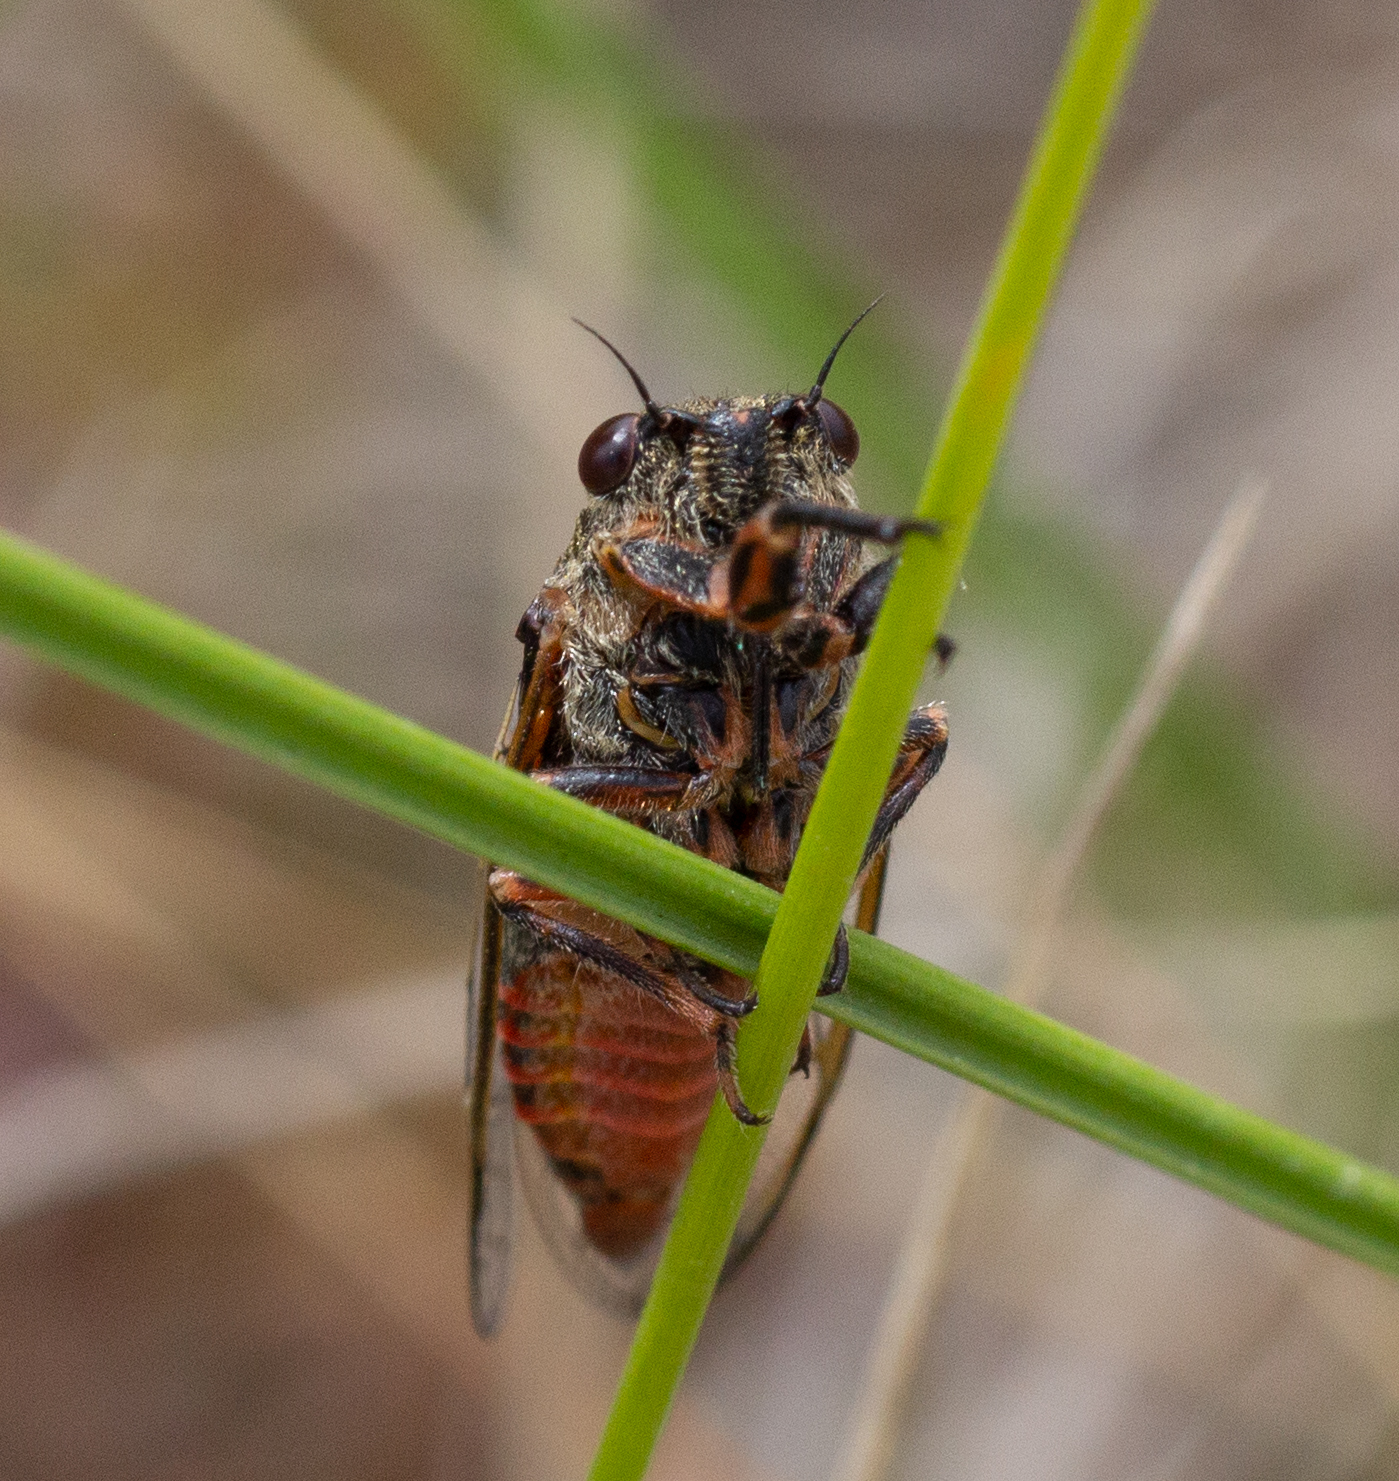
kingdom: Animalia
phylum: Arthropoda
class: Insecta
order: Hemiptera
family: Cicadidae
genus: Tympanistalna
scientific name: Tympanistalna gastrica
